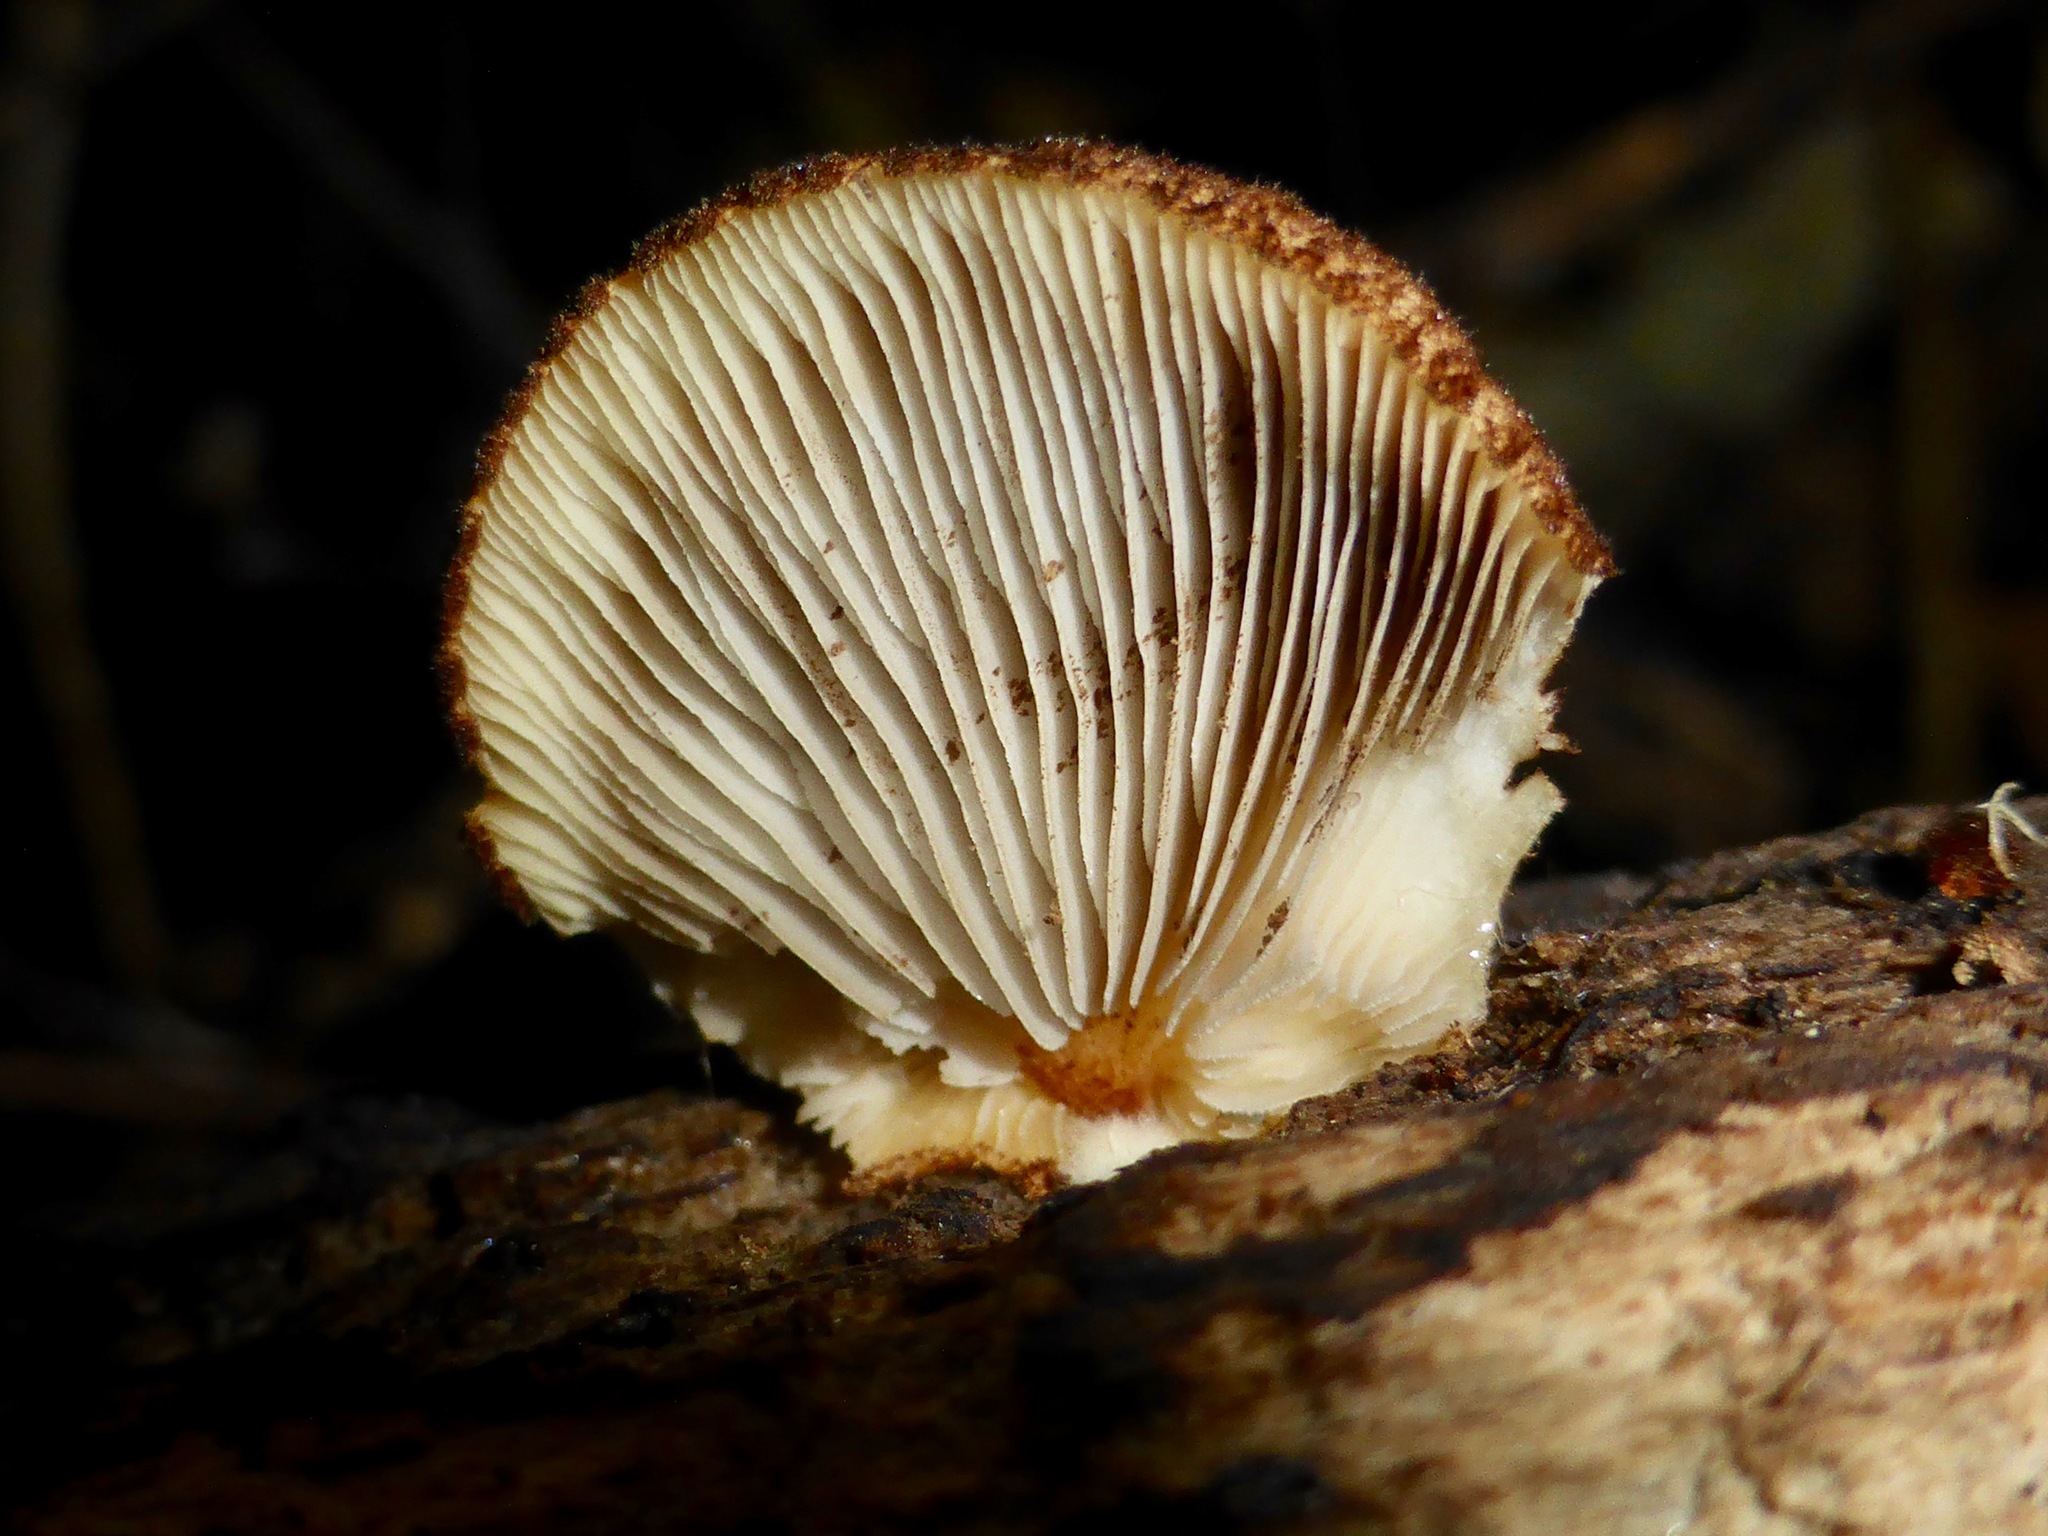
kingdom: Fungi
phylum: Basidiomycota
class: Agaricomycetes
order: Agaricales
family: Crepidotaceae
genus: Crepidotus
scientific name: Crepidotus fuscovelutinus
